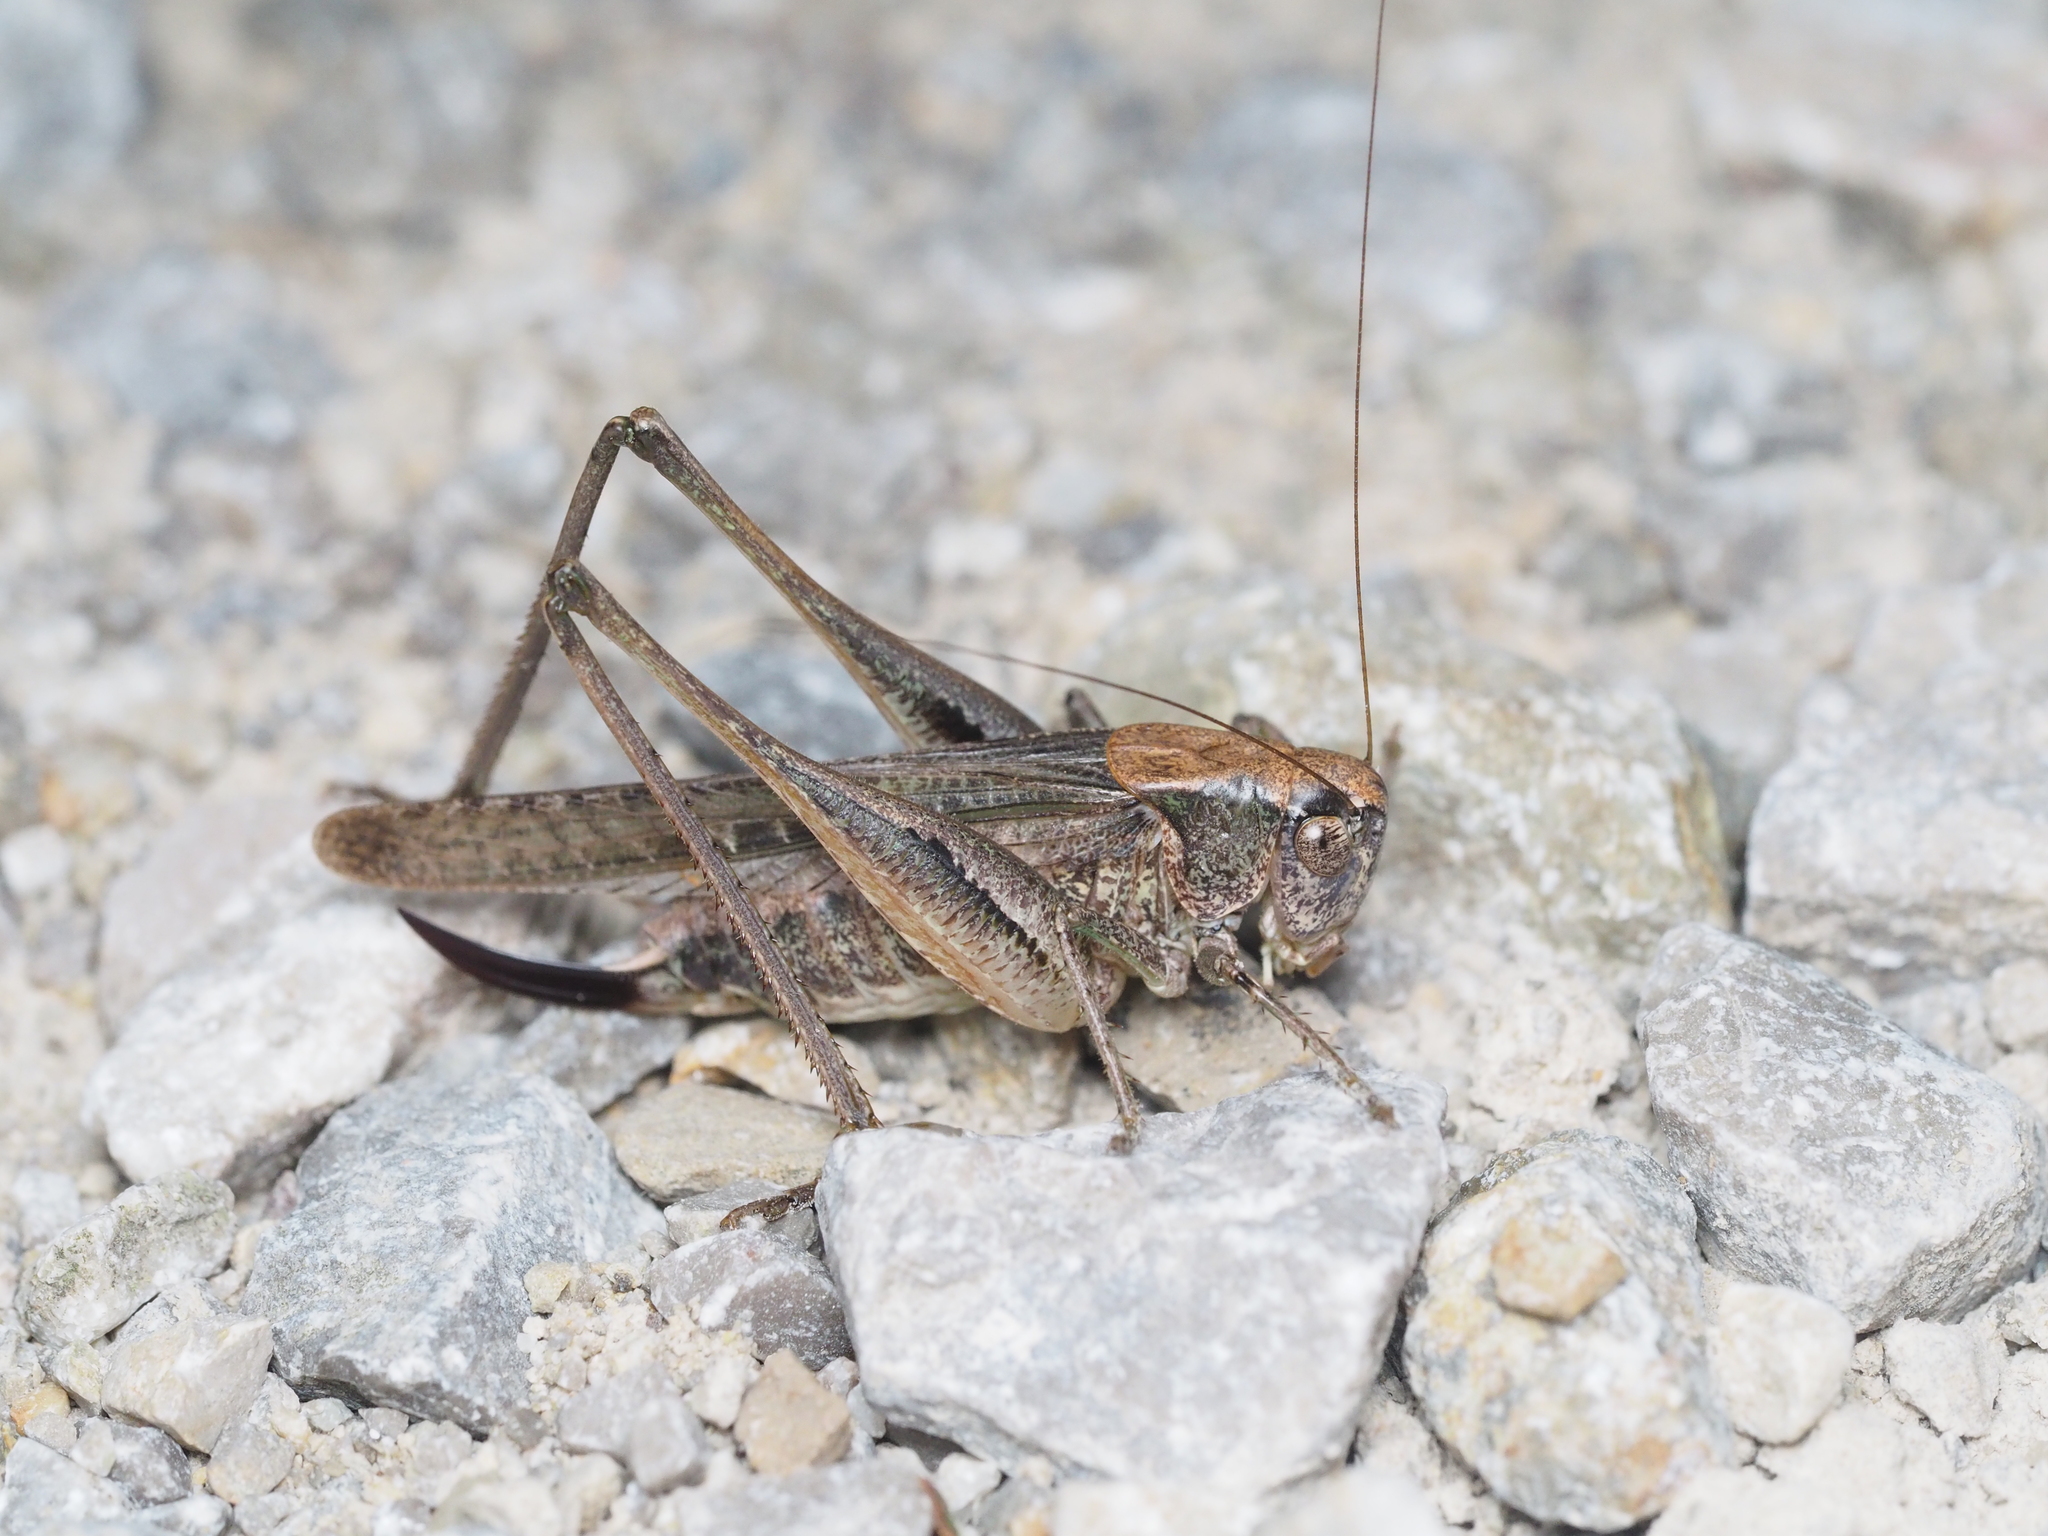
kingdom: Animalia
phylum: Arthropoda
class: Insecta
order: Orthoptera
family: Tettigoniidae
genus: Platycleis
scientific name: Platycleis grisea
